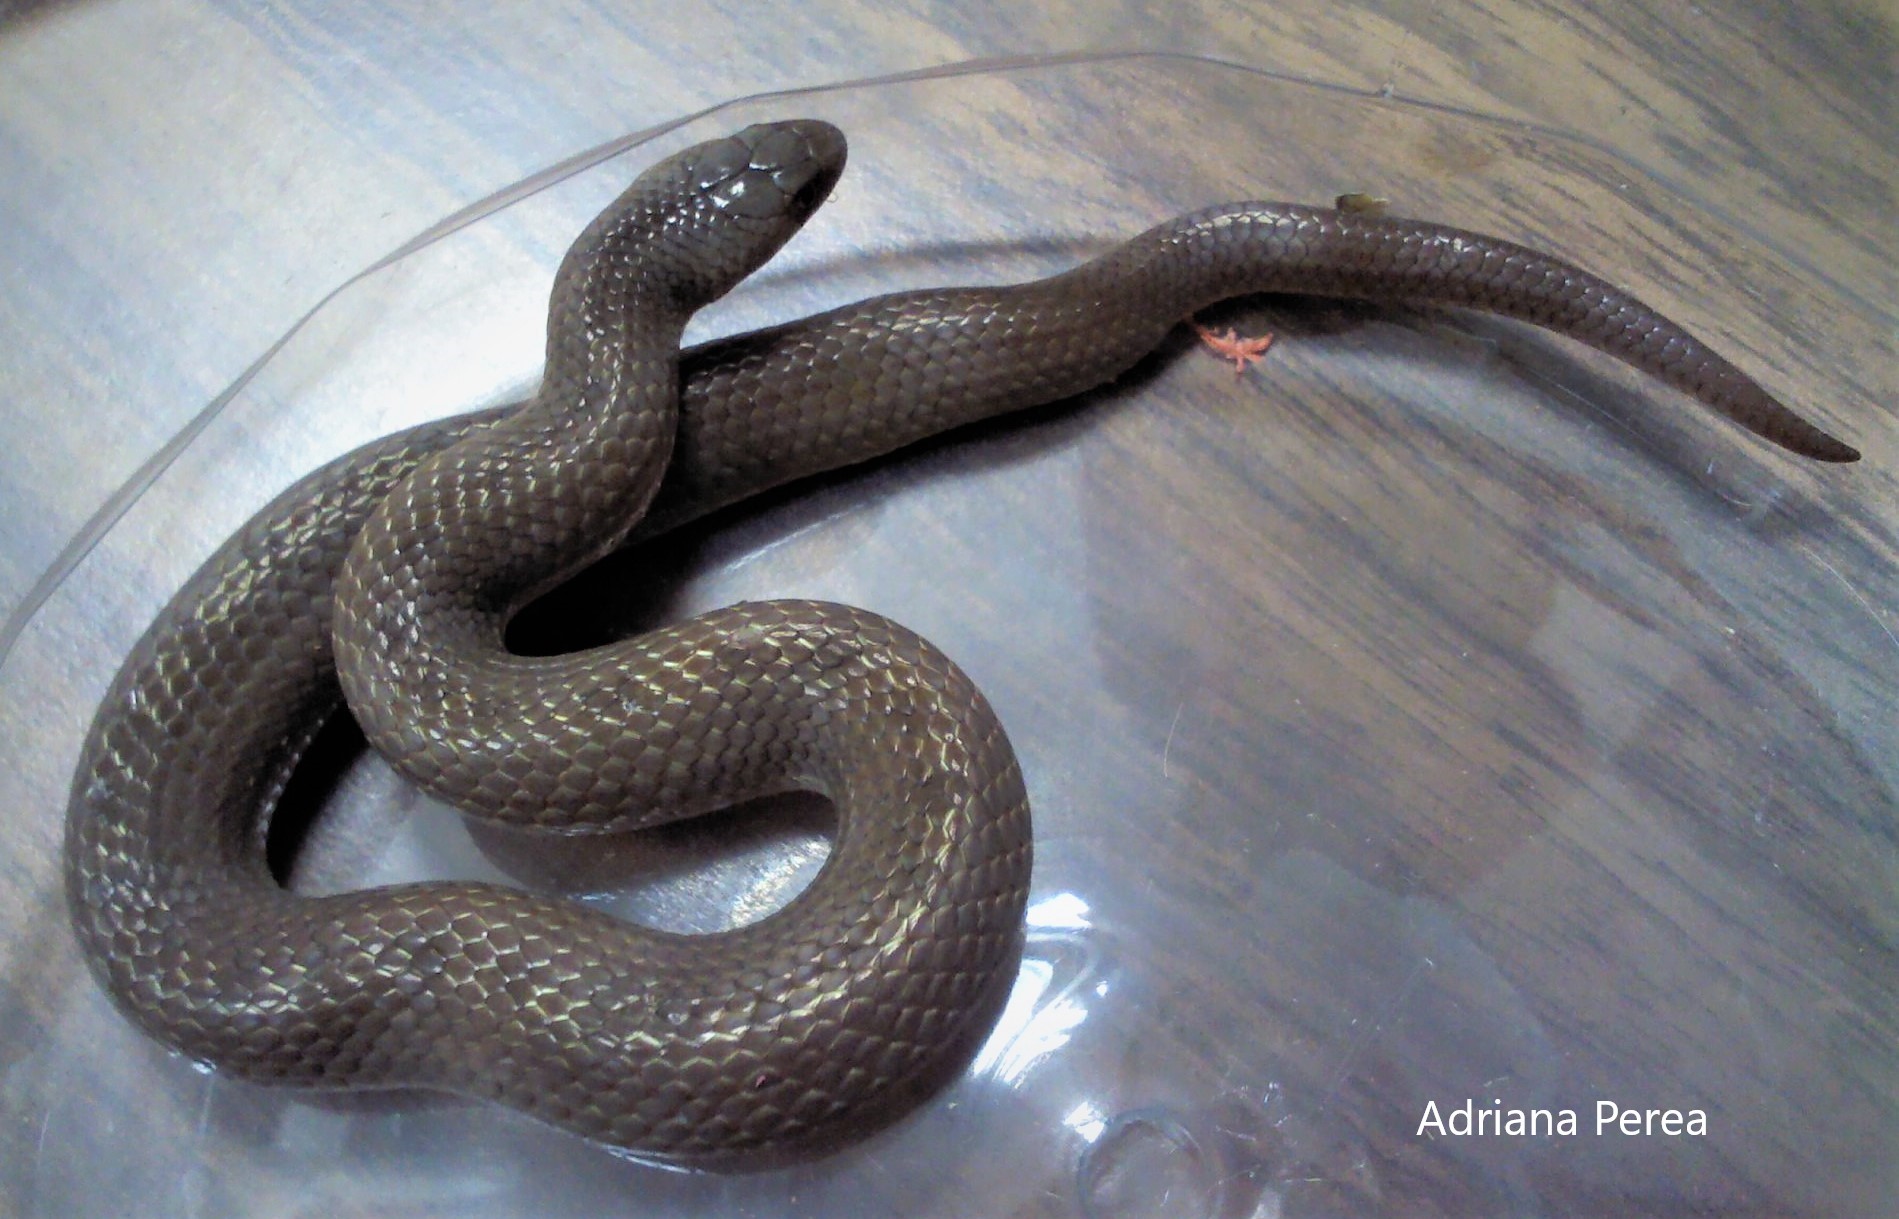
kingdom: Animalia
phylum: Chordata
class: Squamata
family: Colubridae
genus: Conopsis
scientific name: Conopsis nasus
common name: Largenose earth snake
